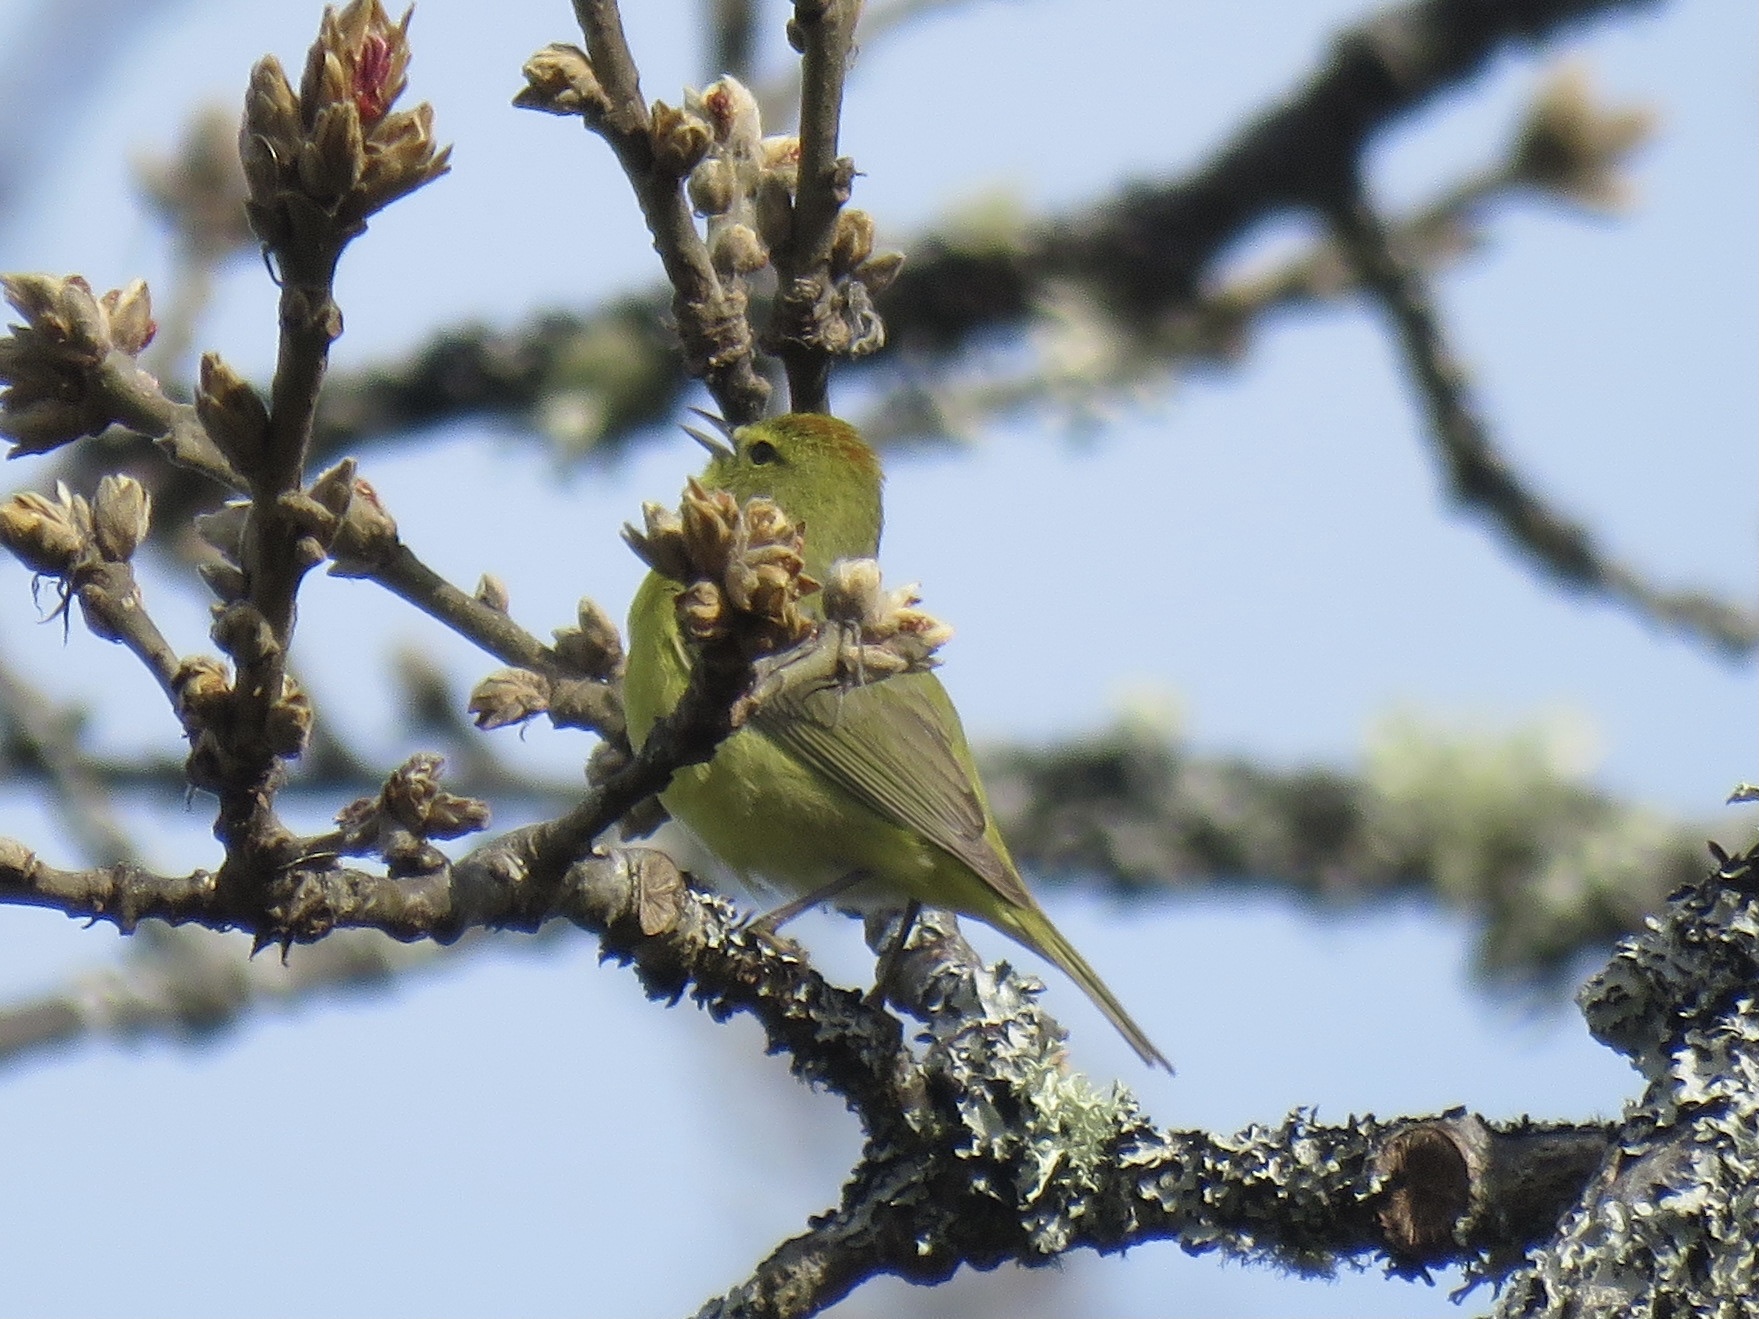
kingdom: Animalia
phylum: Chordata
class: Aves
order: Passeriformes
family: Parulidae
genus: Leiothlypis
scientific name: Leiothlypis celata
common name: Orange-crowned warbler
